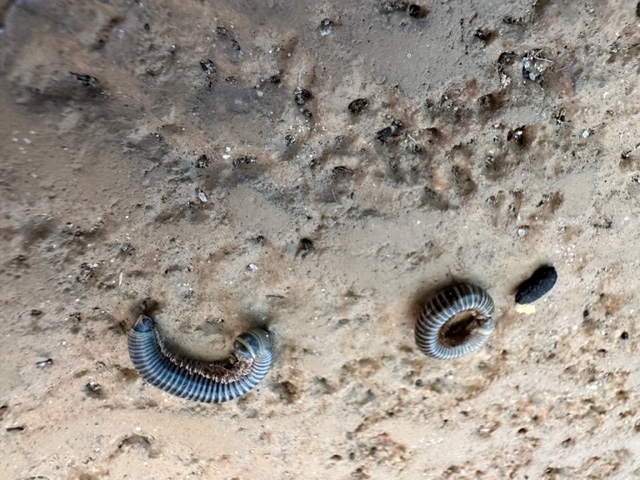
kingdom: Animalia
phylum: Arthropoda
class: Diplopoda
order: Spirobolida
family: Rhinocricidae
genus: Anadenobolus
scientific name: Anadenobolus monilicornis
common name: Caribbean millipede
